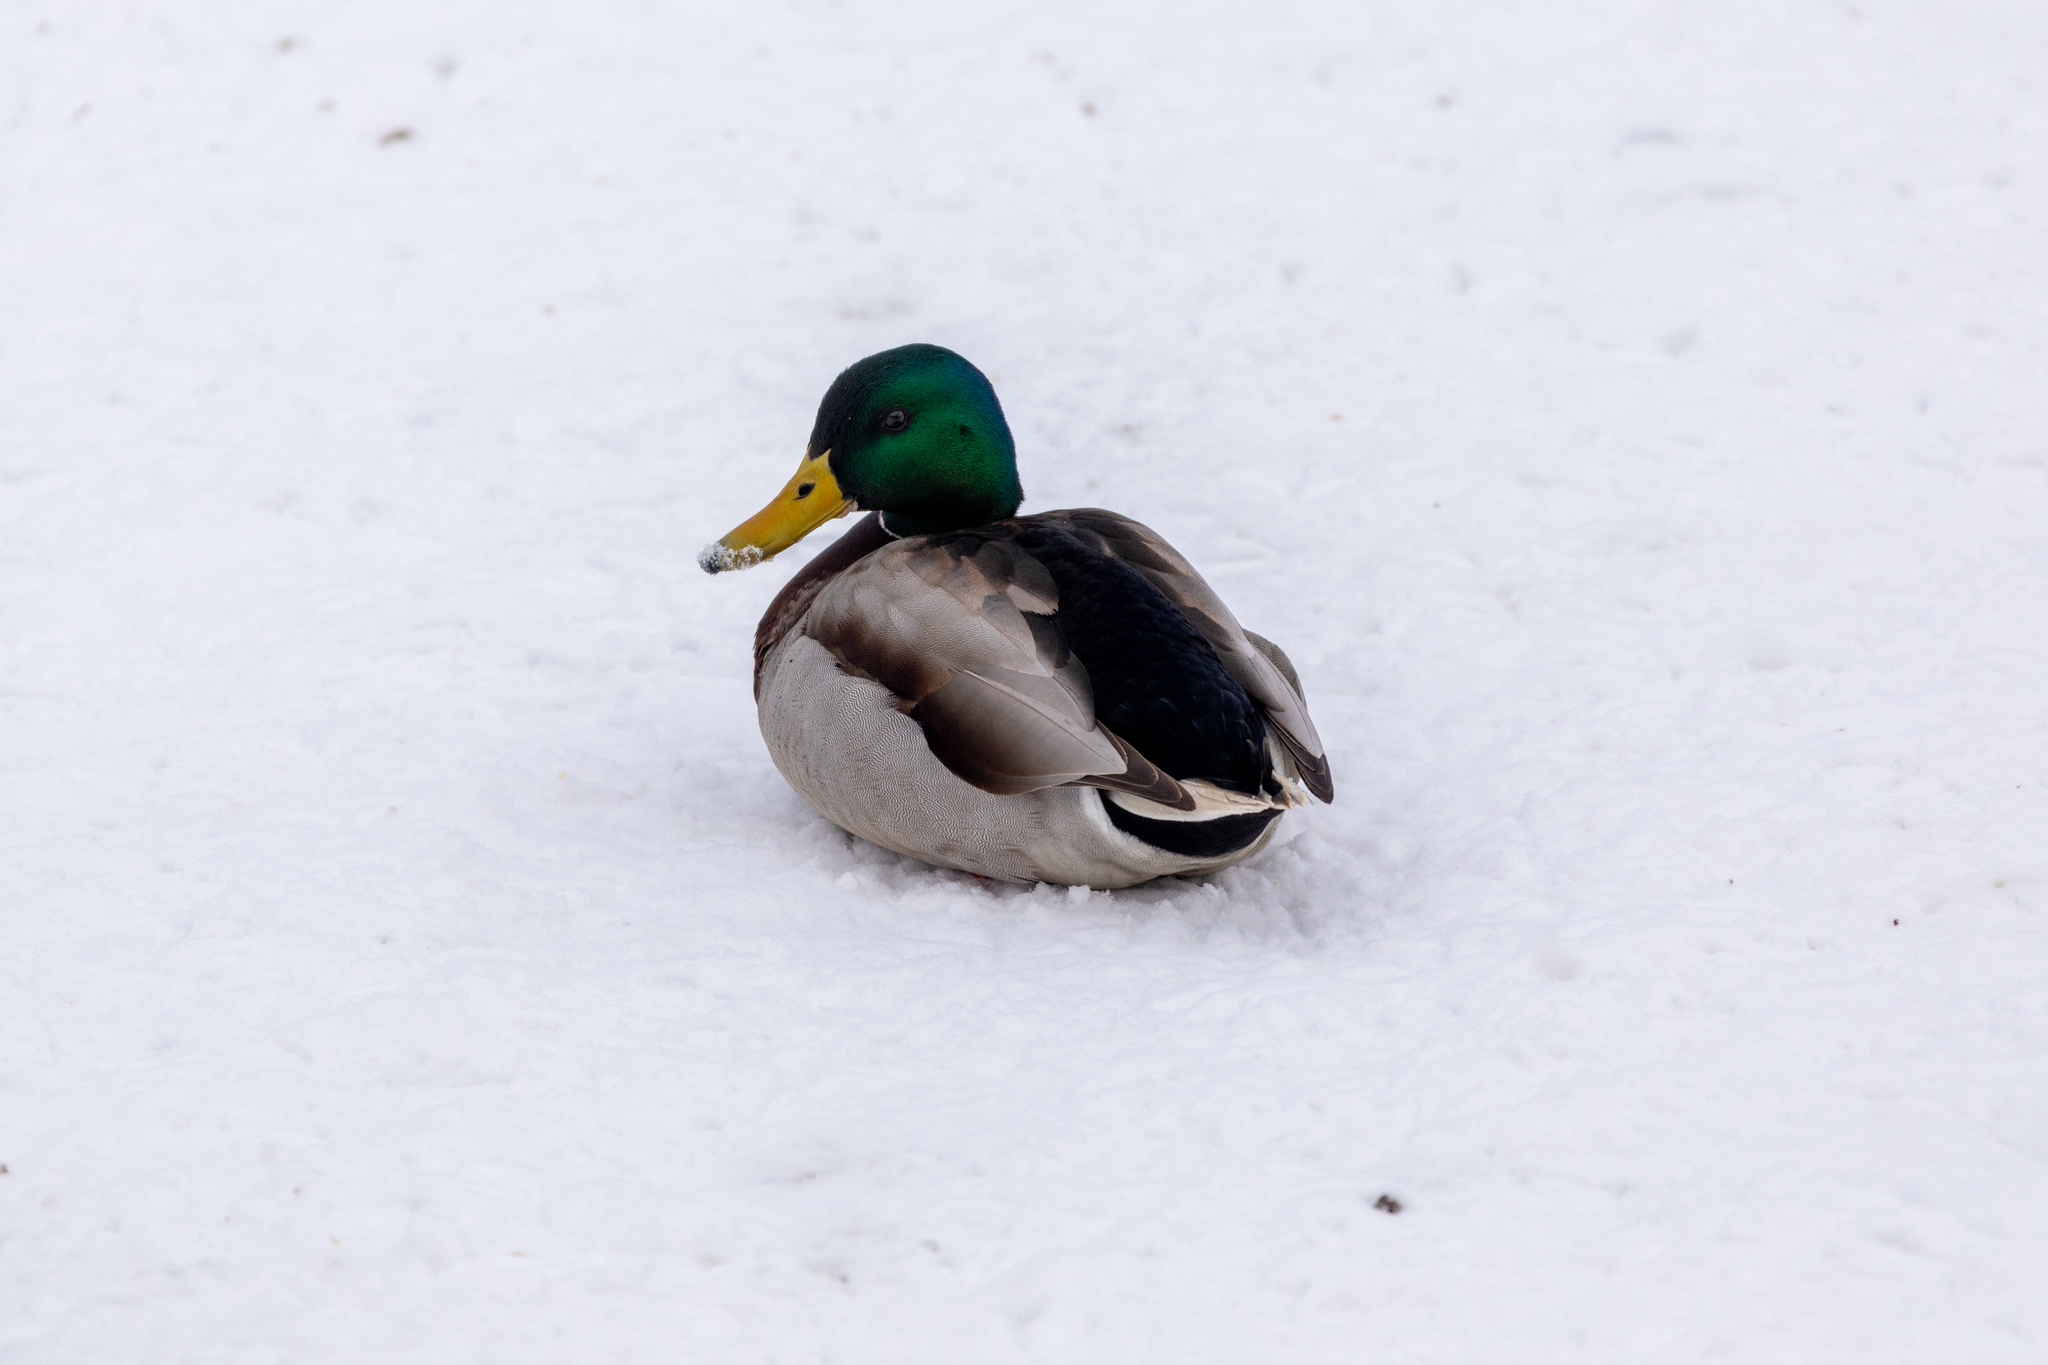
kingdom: Animalia
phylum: Chordata
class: Aves
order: Anseriformes
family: Anatidae
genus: Anas
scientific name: Anas platyrhynchos
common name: Mallard
